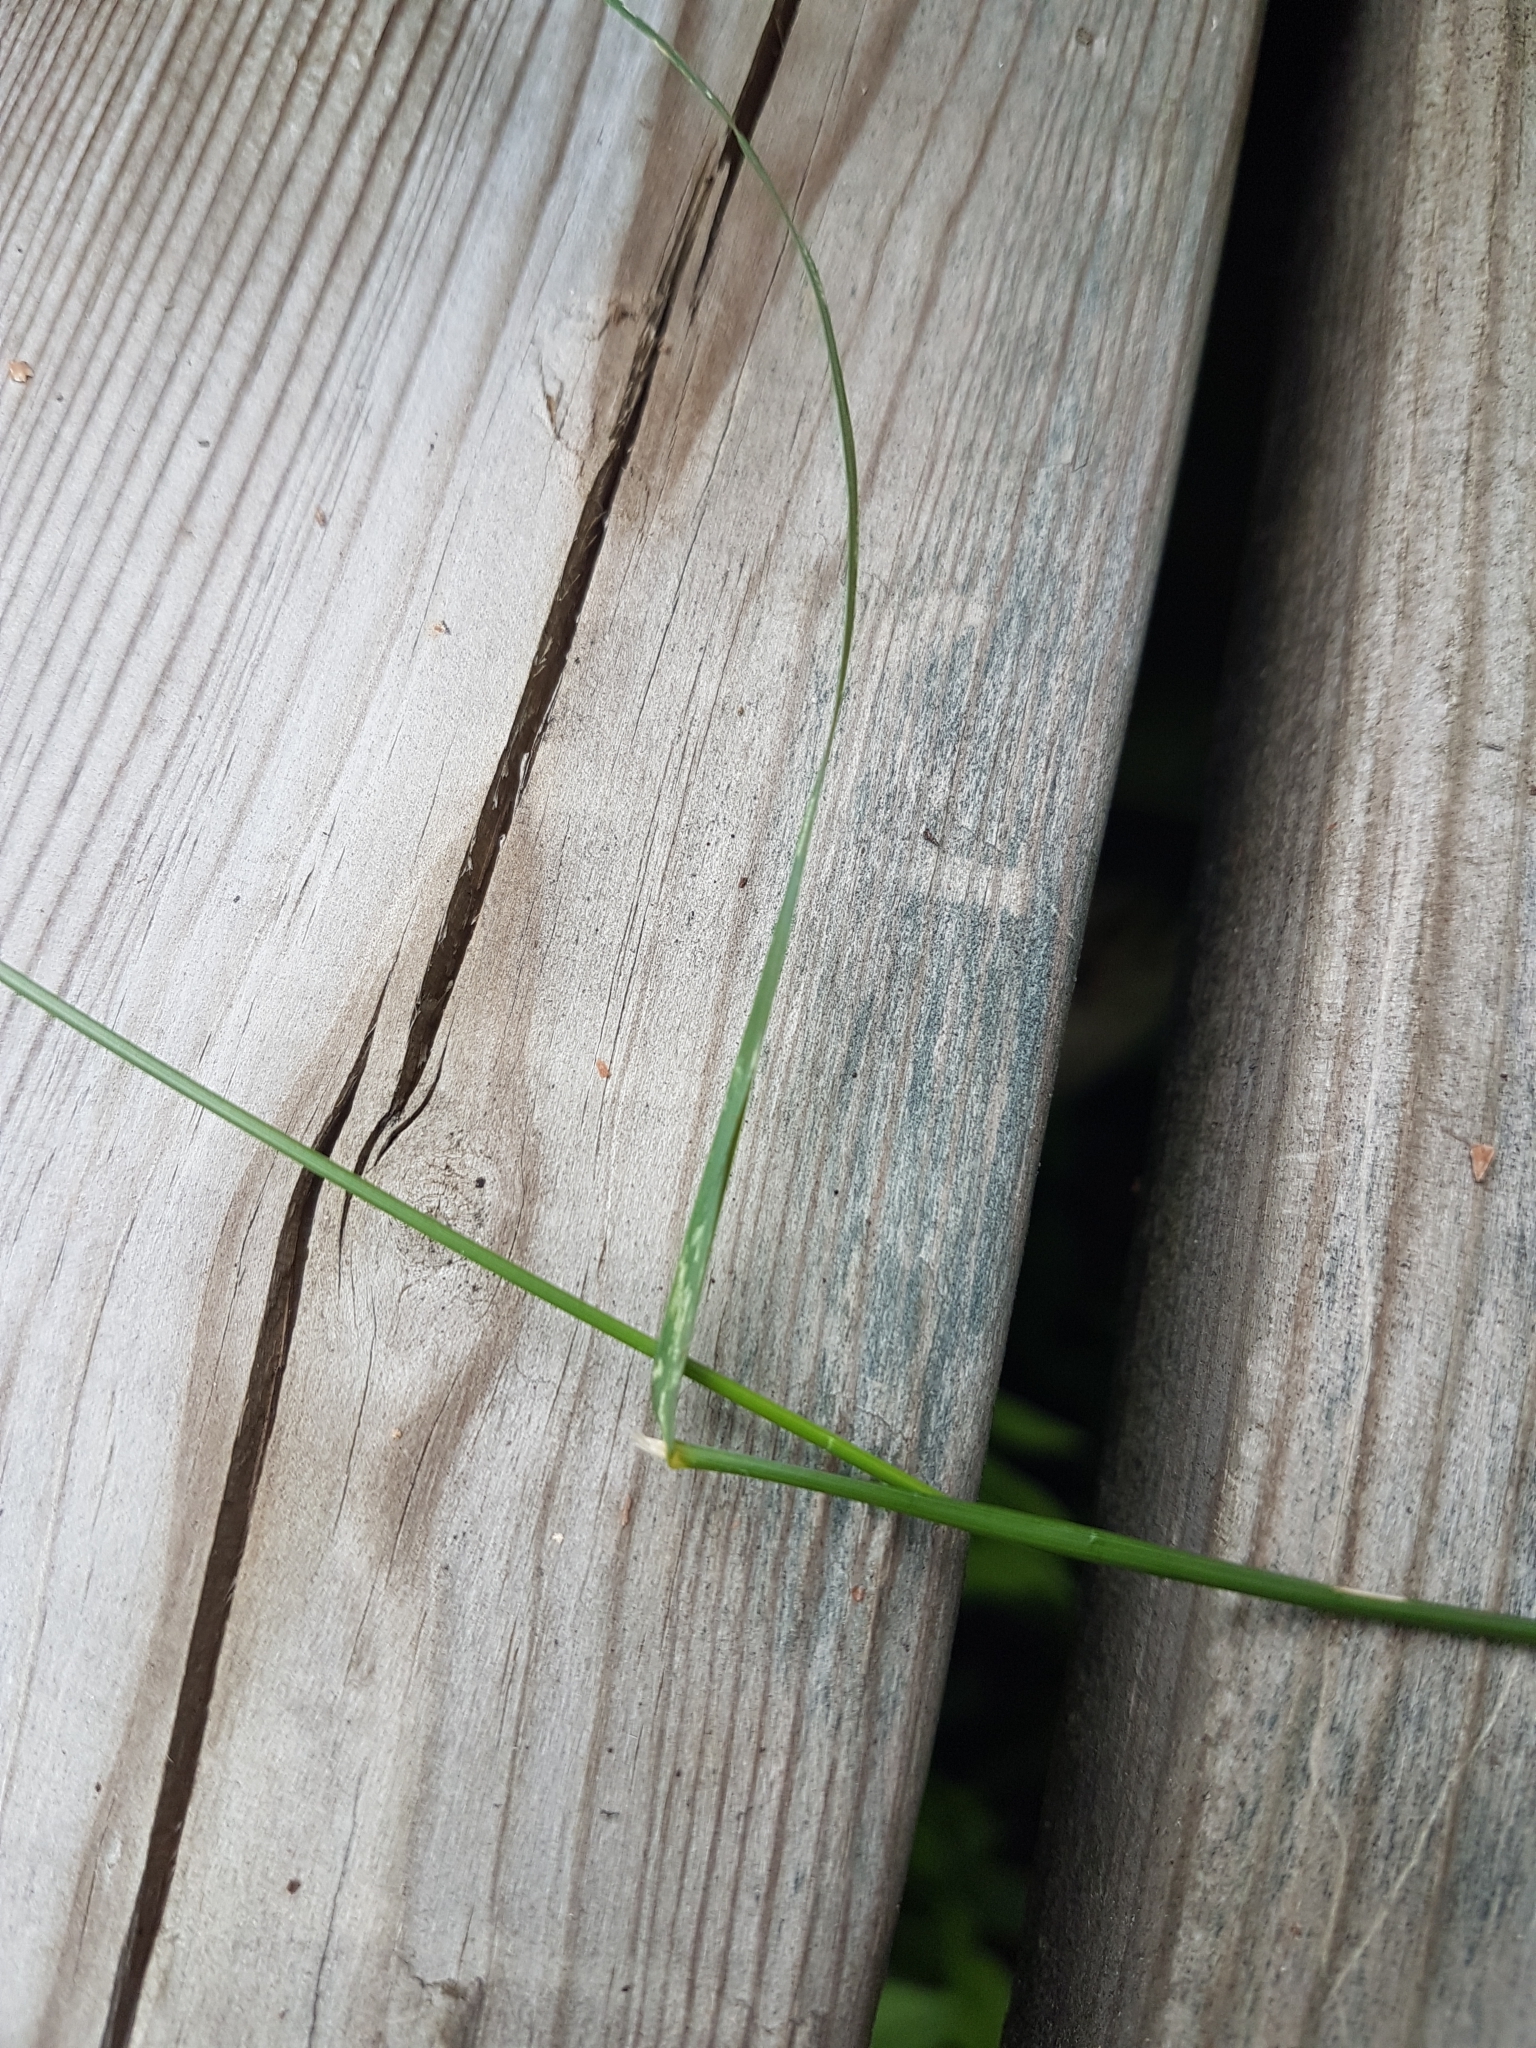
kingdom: Plantae
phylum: Tracheophyta
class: Liliopsida
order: Poales
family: Poaceae
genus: Poa
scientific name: Poa palustris
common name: Swamp meadow-grass
